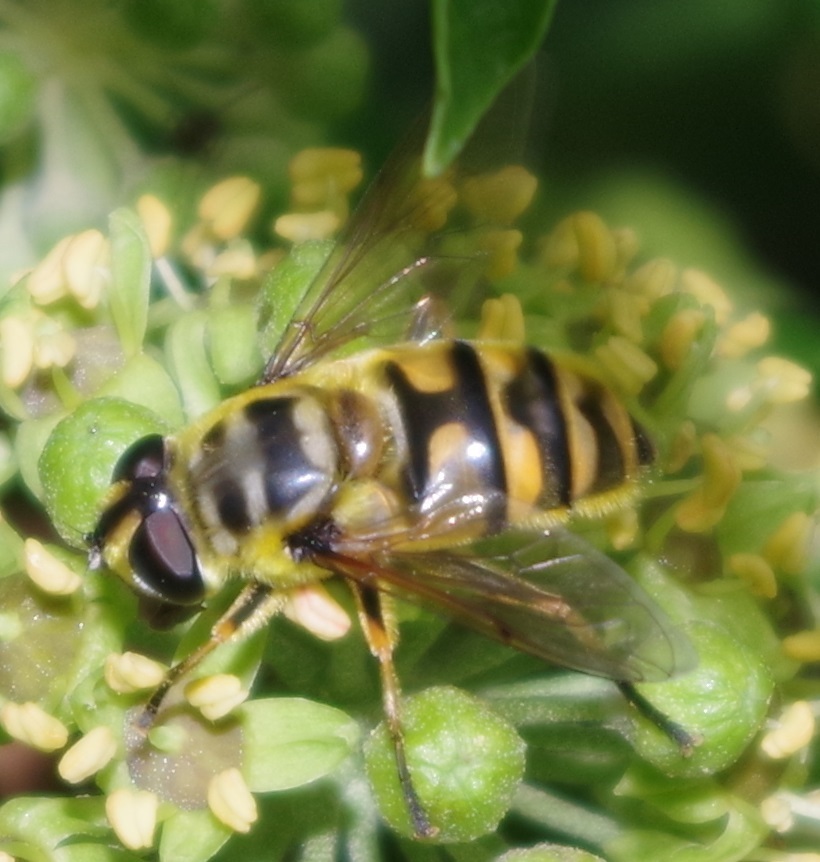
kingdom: Animalia
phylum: Arthropoda
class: Insecta
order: Diptera
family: Syrphidae
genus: Myathropa
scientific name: Myathropa florea
